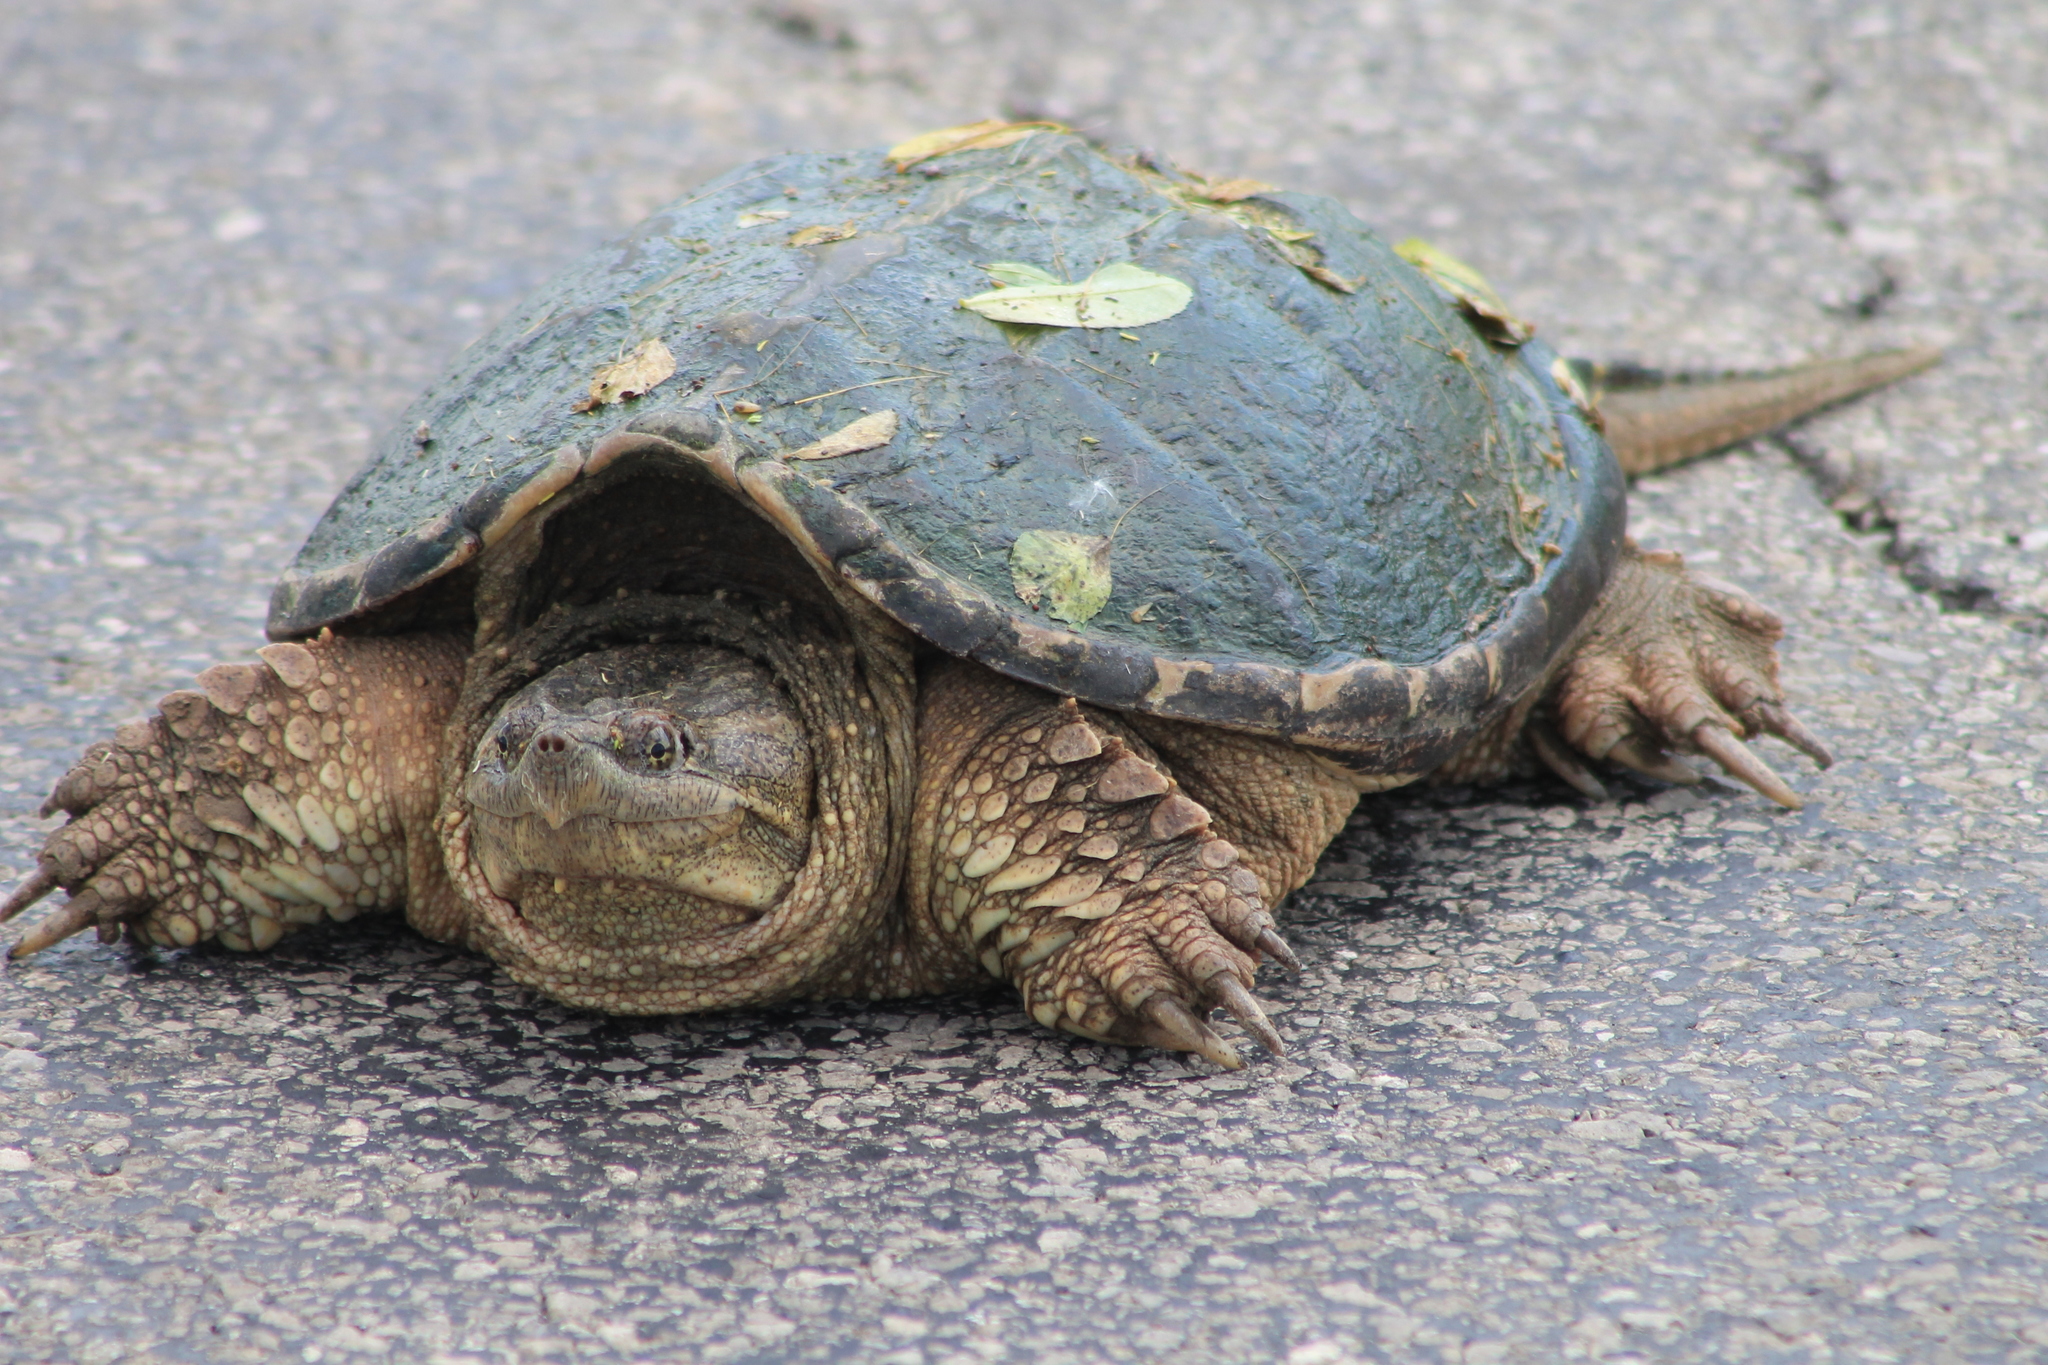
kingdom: Animalia
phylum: Chordata
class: Testudines
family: Chelydridae
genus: Chelydra
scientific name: Chelydra serpentina
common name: Common snapping turtle
